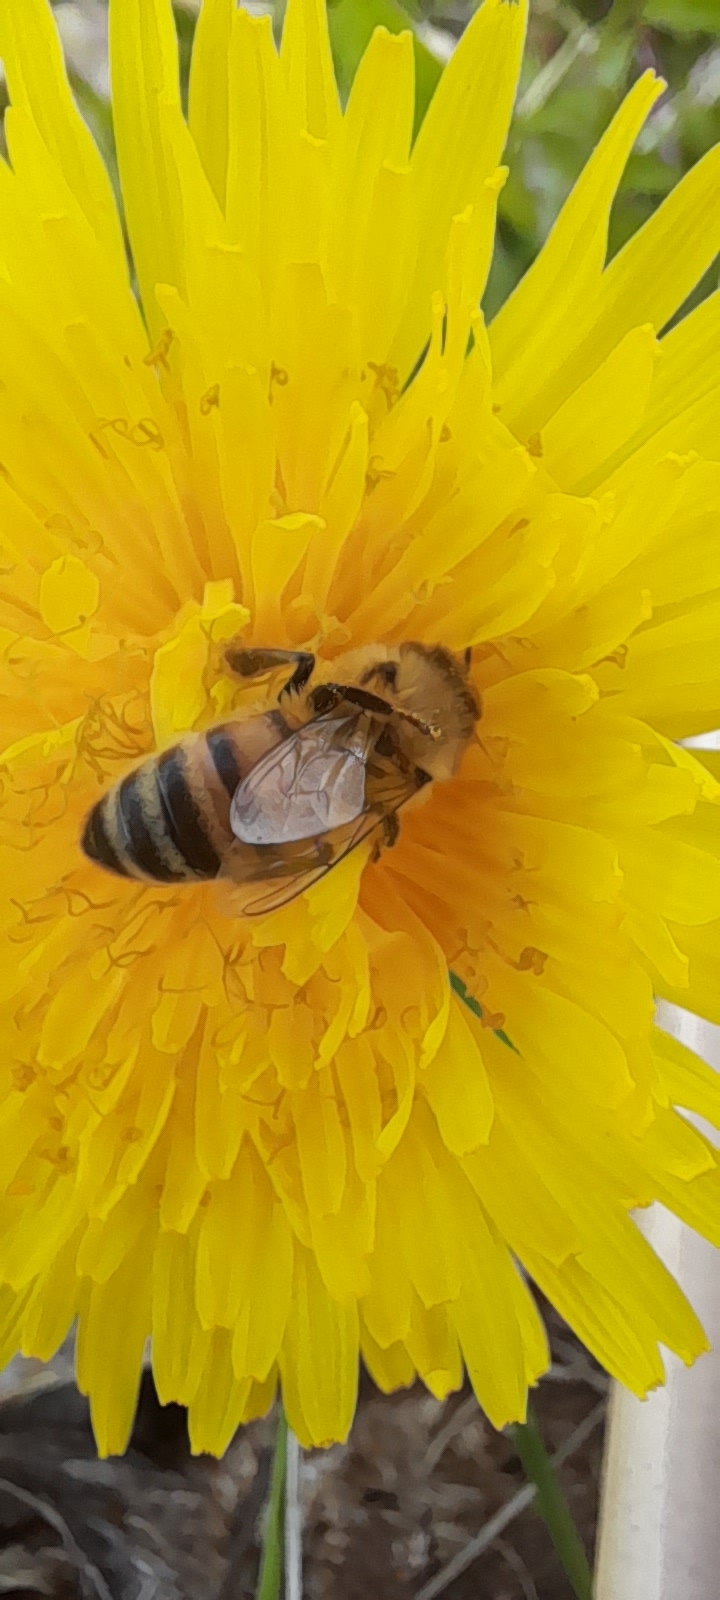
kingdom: Animalia
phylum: Arthropoda
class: Insecta
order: Hymenoptera
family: Apidae
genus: Apis
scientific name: Apis mellifera
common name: Honey bee
